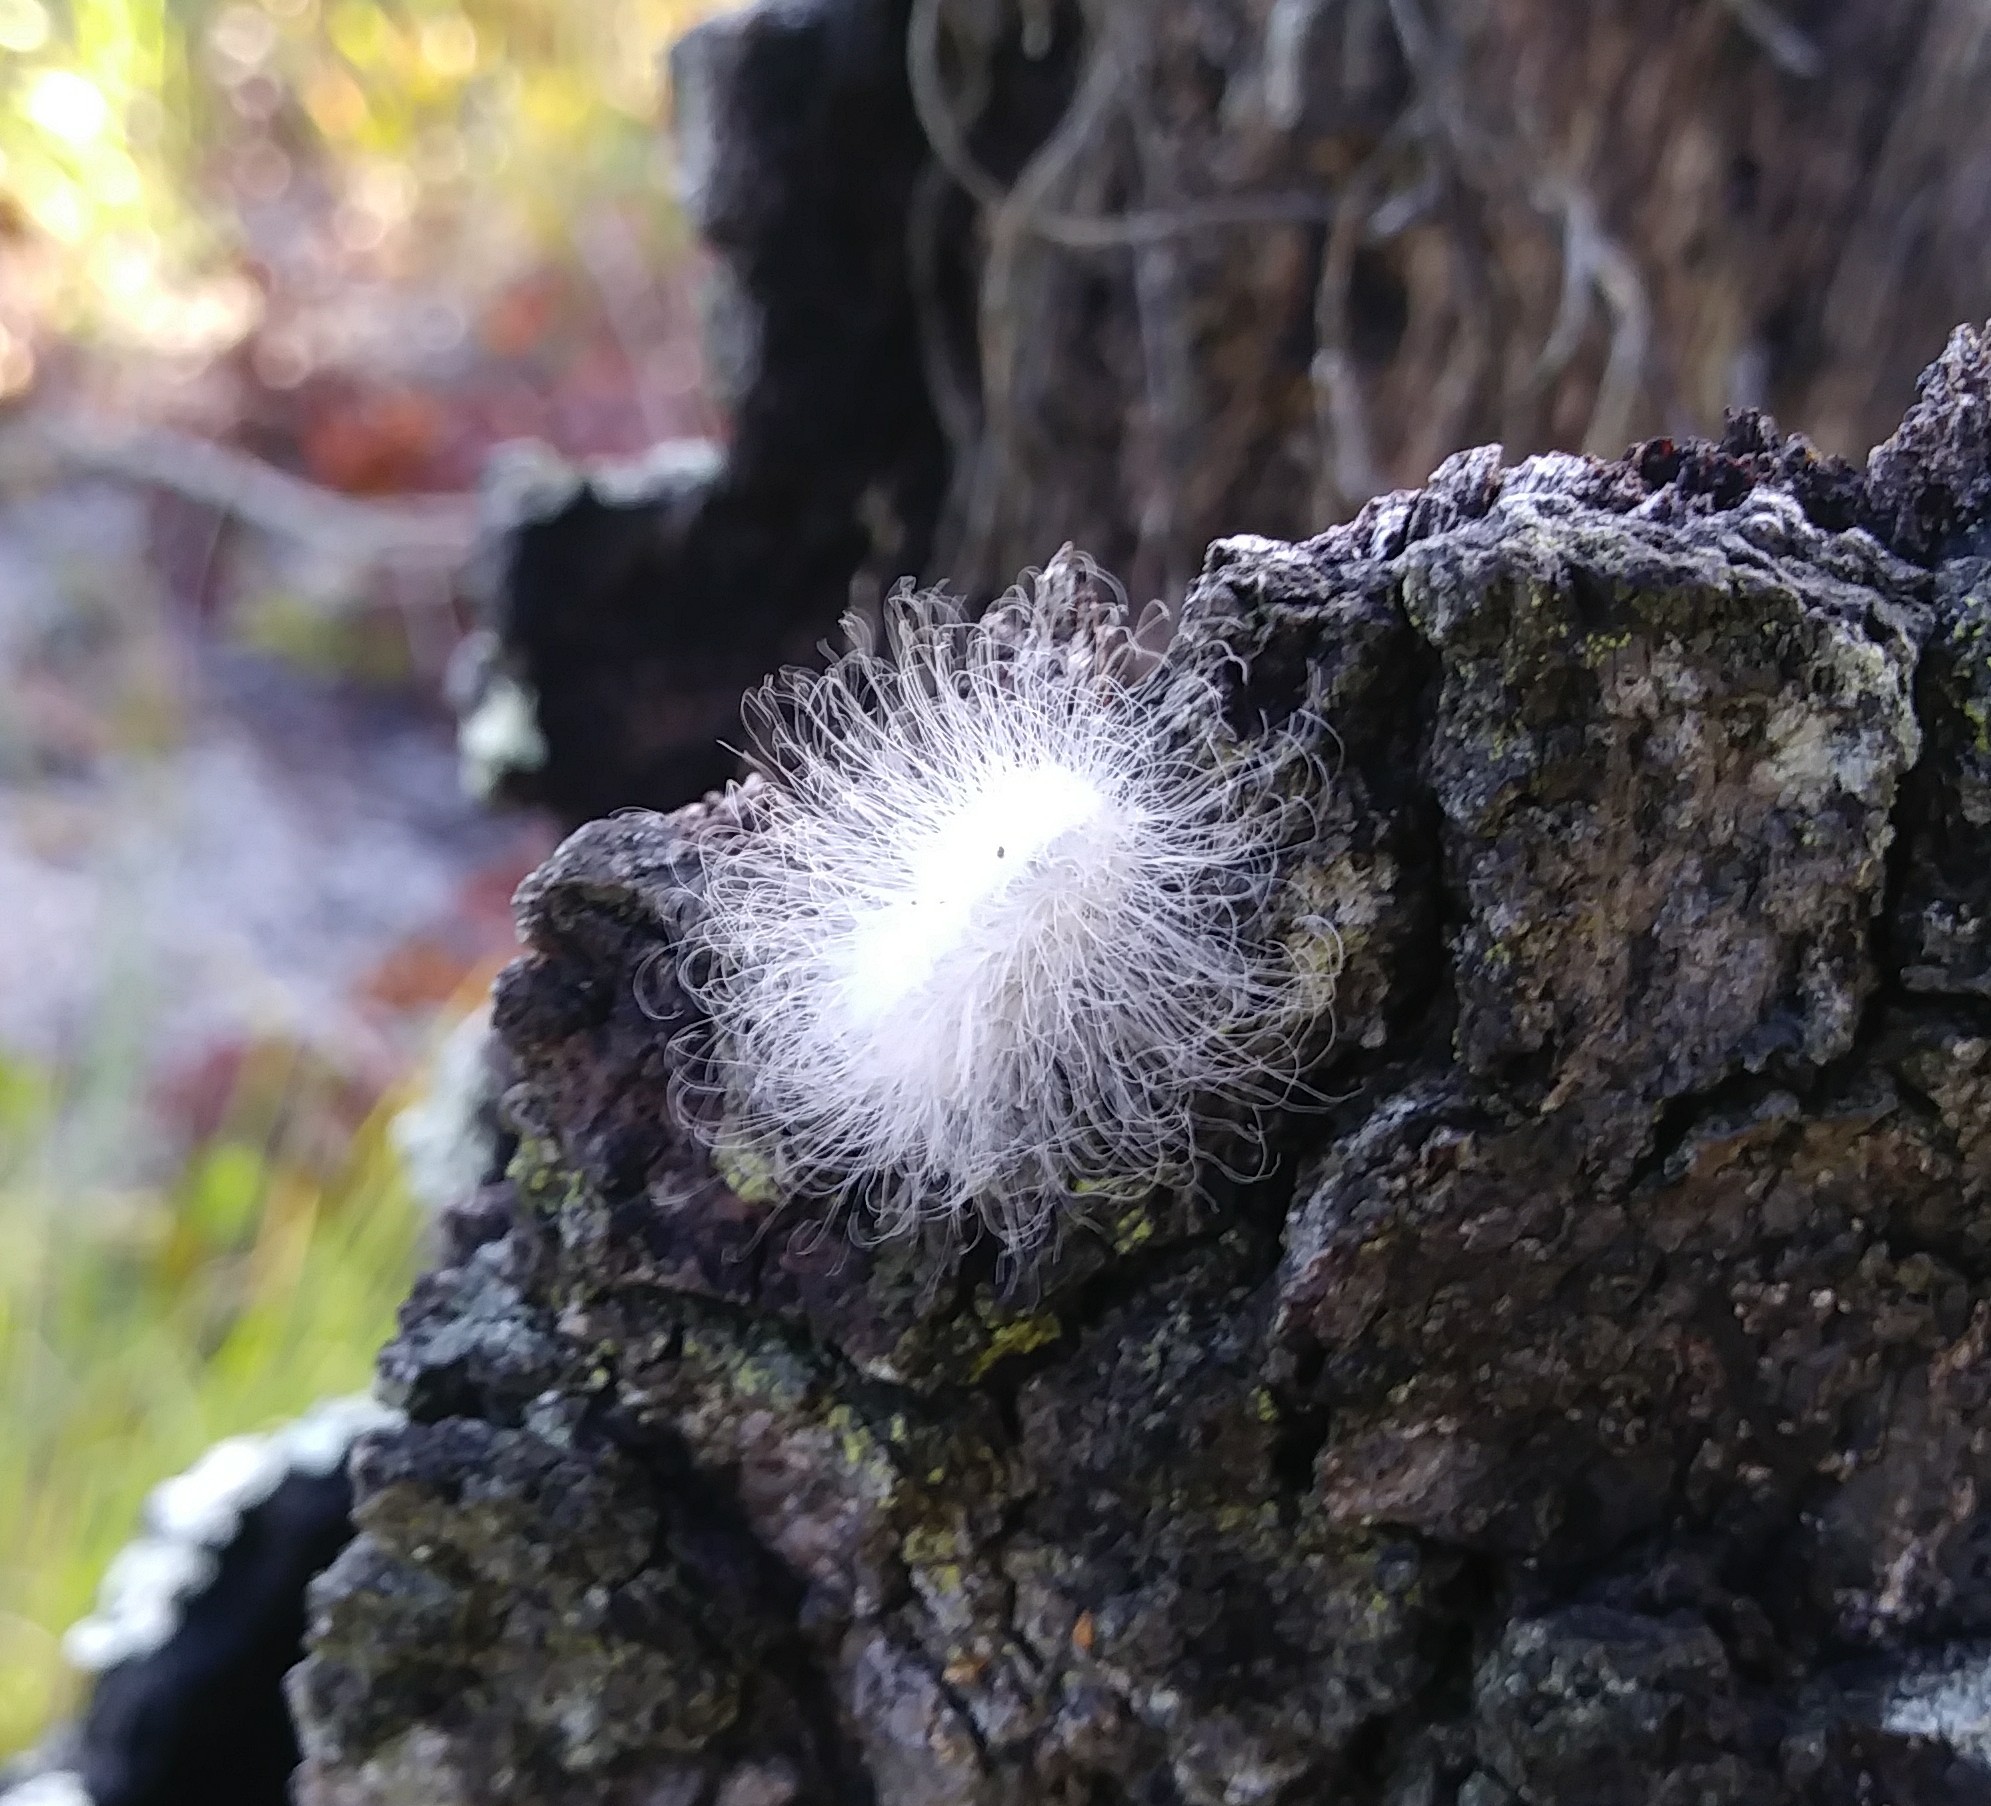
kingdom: Animalia
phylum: Arthropoda
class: Insecta
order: Lepidoptera
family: Megalopygidae
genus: Megalopyge
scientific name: Megalopyge
